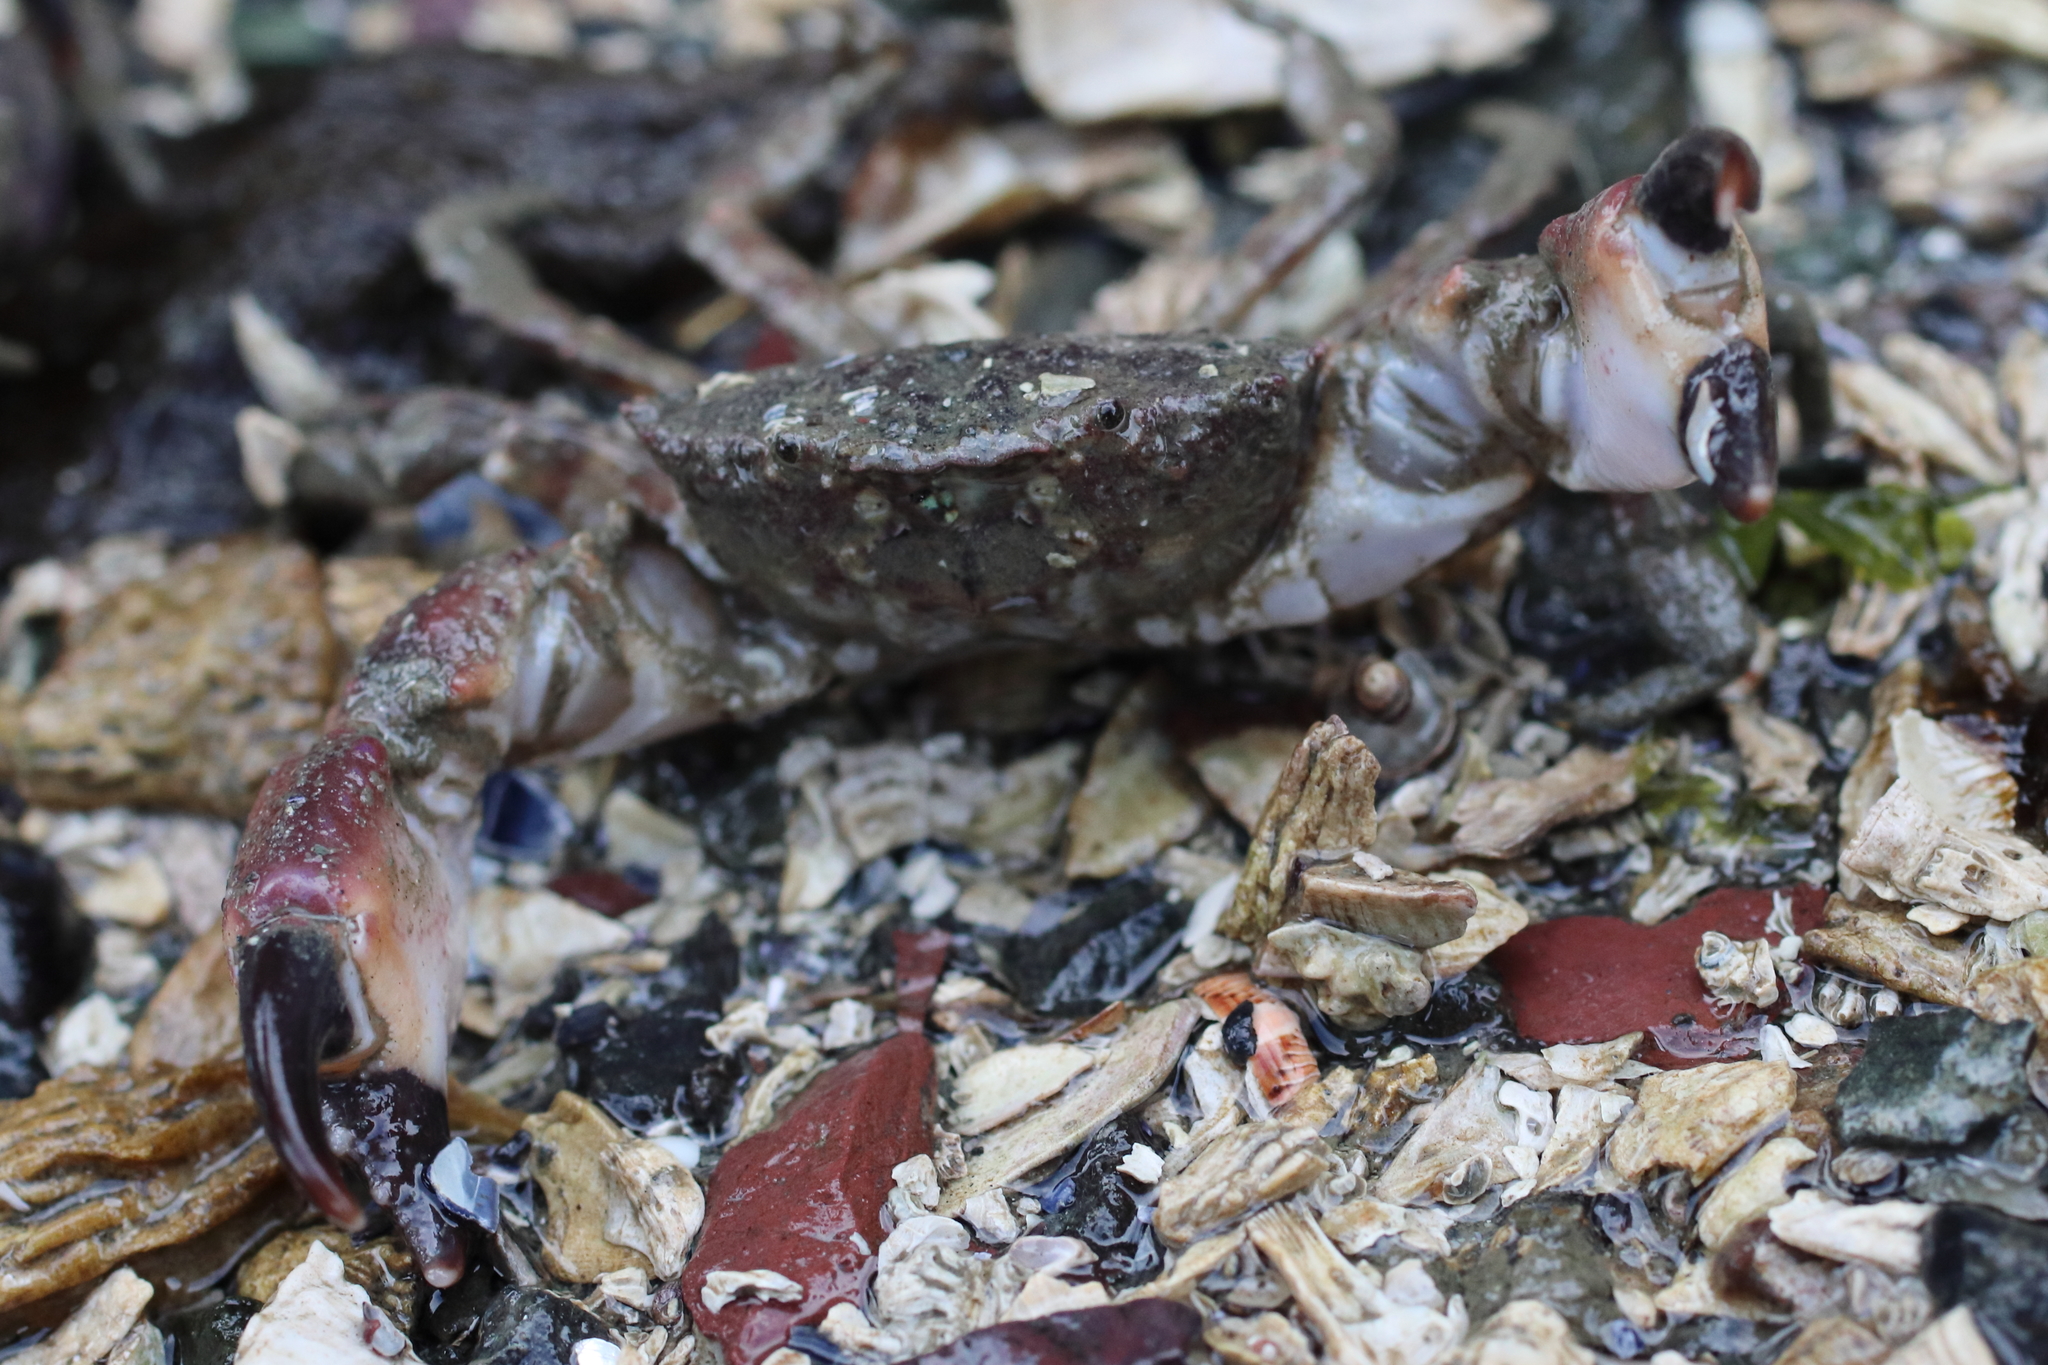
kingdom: Animalia
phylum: Arthropoda
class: Malacostraca
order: Decapoda
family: Panopeidae
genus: Lophopanopeus
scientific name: Lophopanopeus bellus
